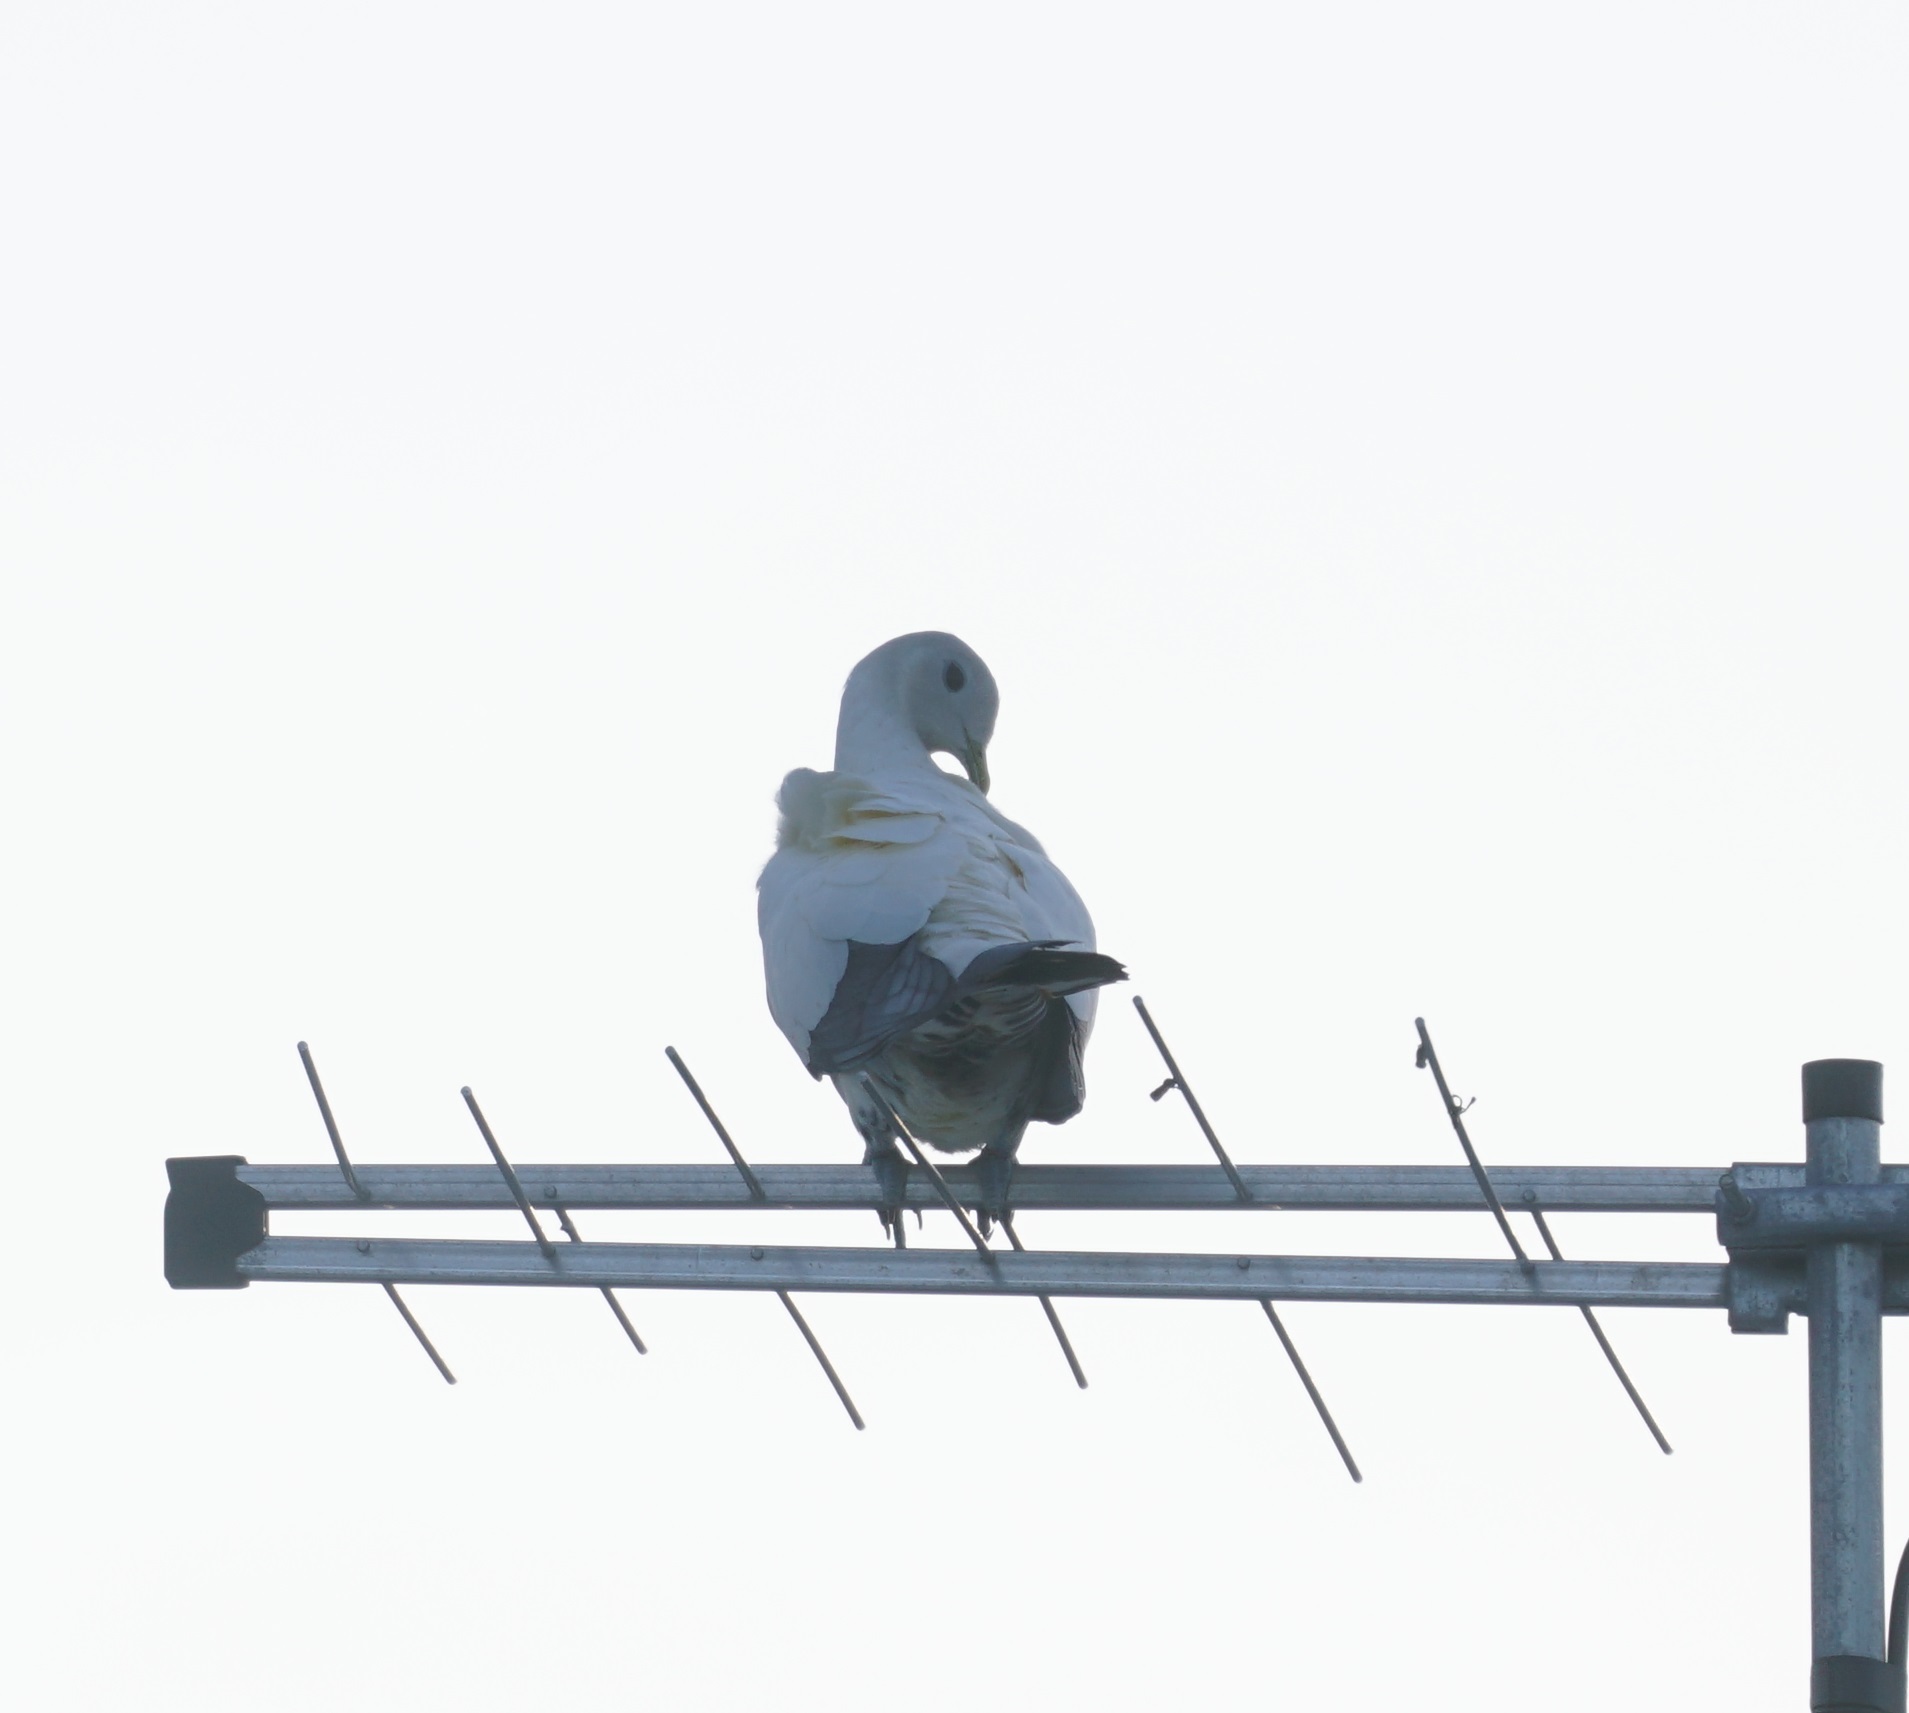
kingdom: Animalia
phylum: Chordata
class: Aves
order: Columbiformes
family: Columbidae
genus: Ducula
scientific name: Ducula spilorrhoa
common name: Torresian imperial pigeon
